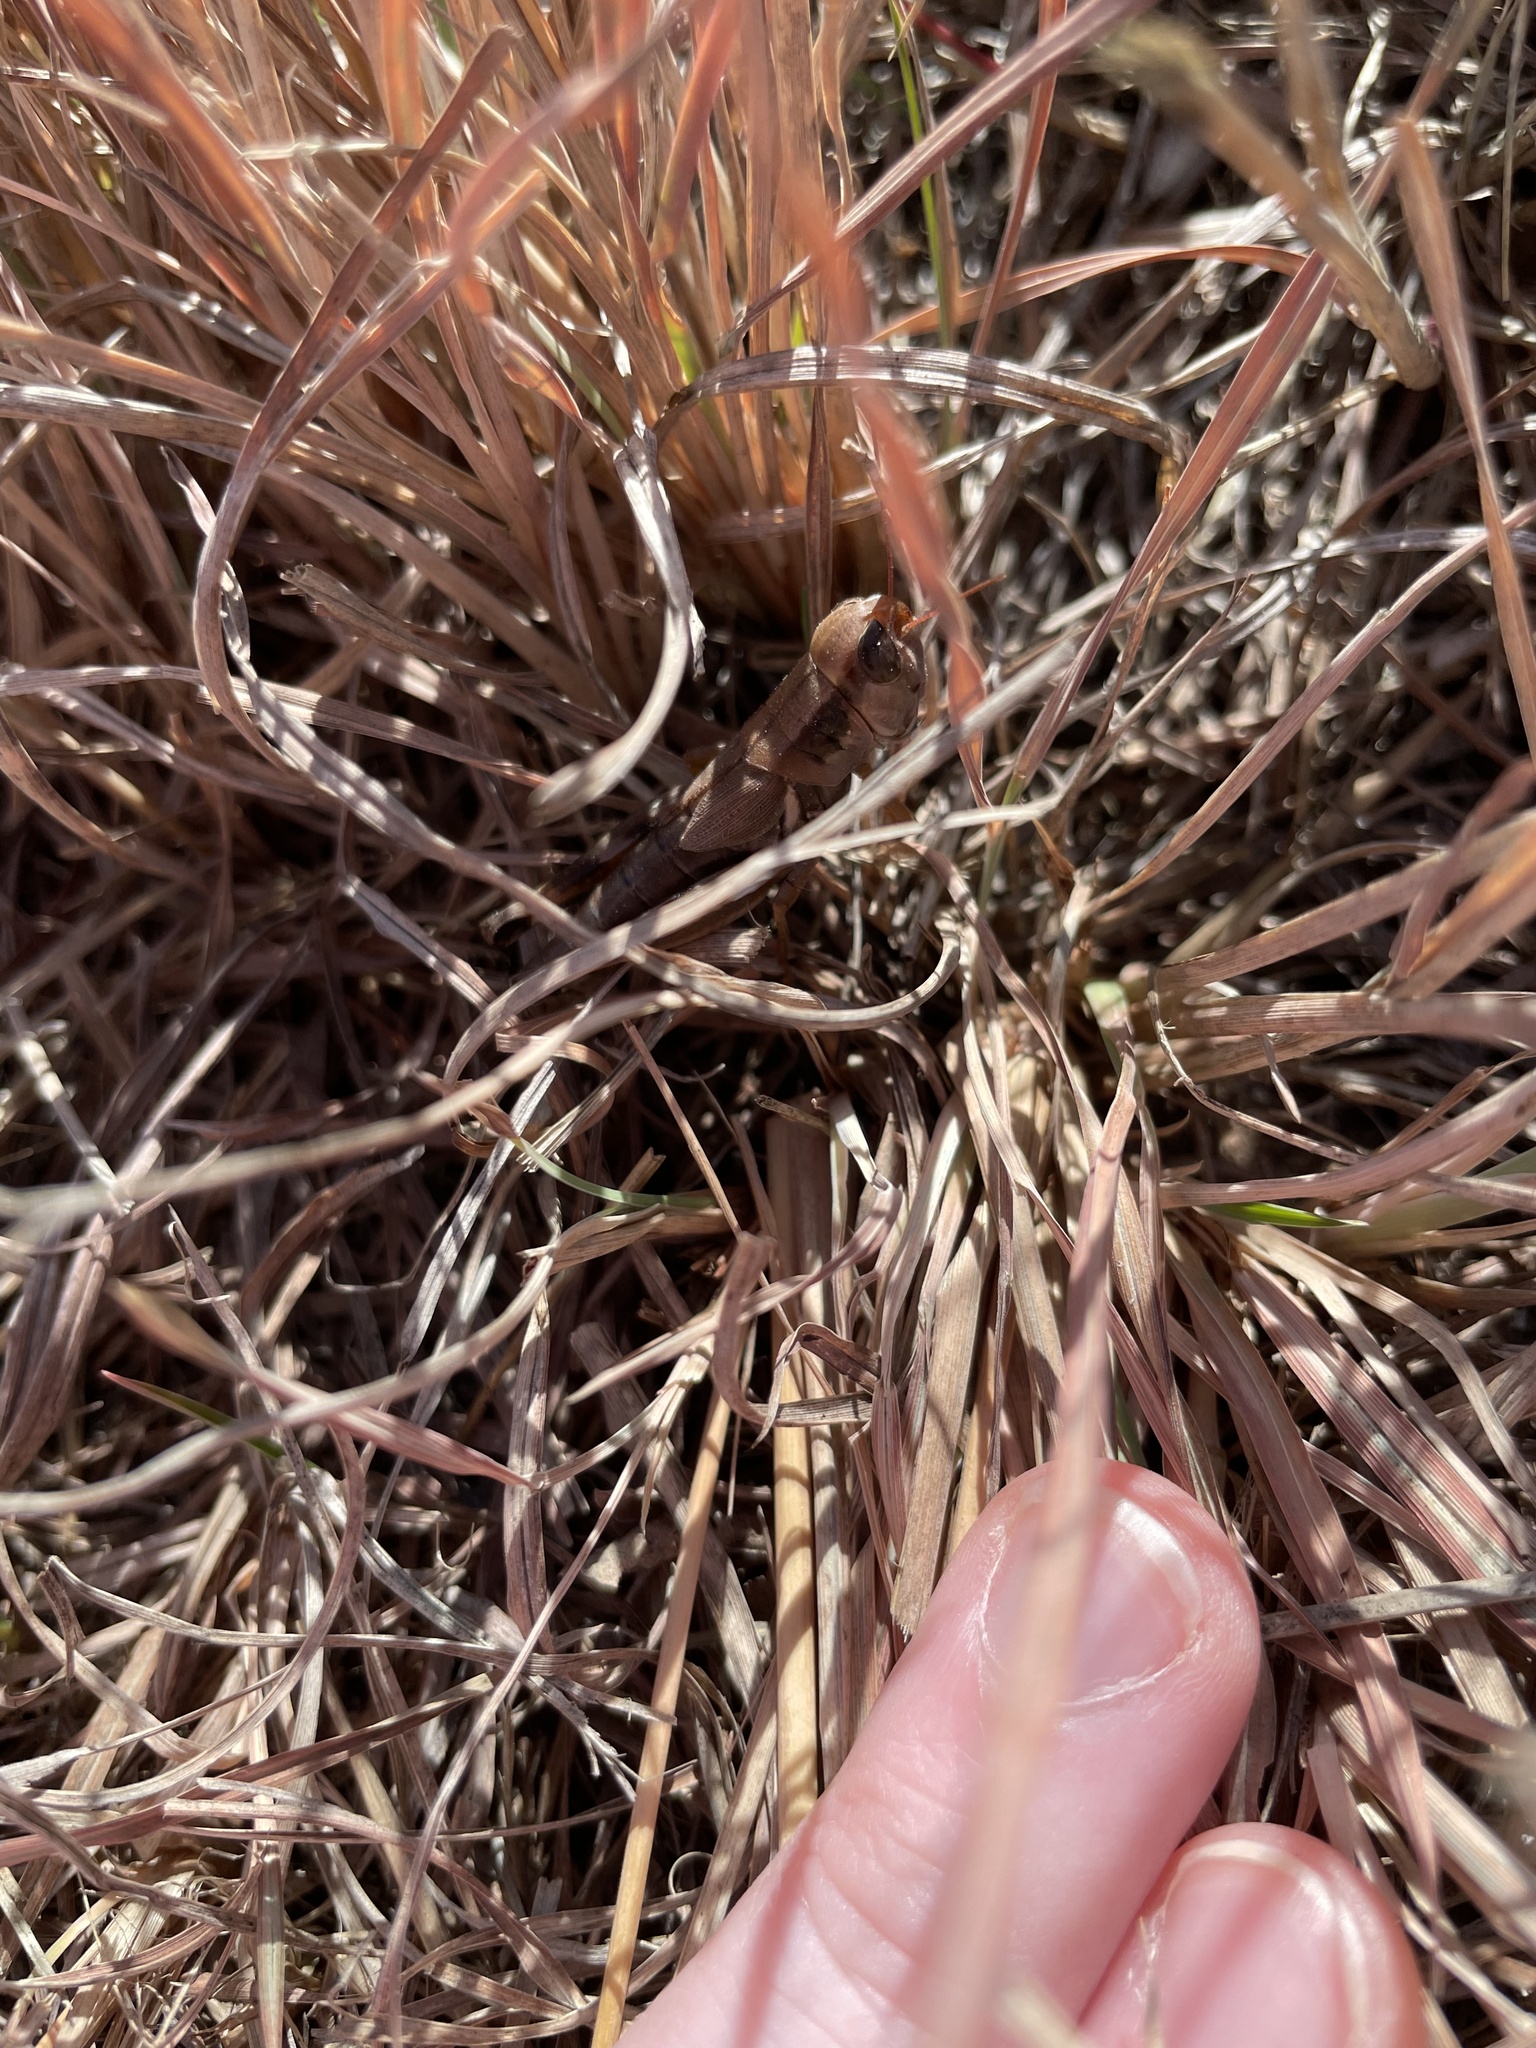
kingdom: Animalia
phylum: Arthropoda
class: Insecta
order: Orthoptera
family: Acrididae
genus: Phoetaliotes
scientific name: Phoetaliotes nebrascensis
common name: Large-headed grasshopper
